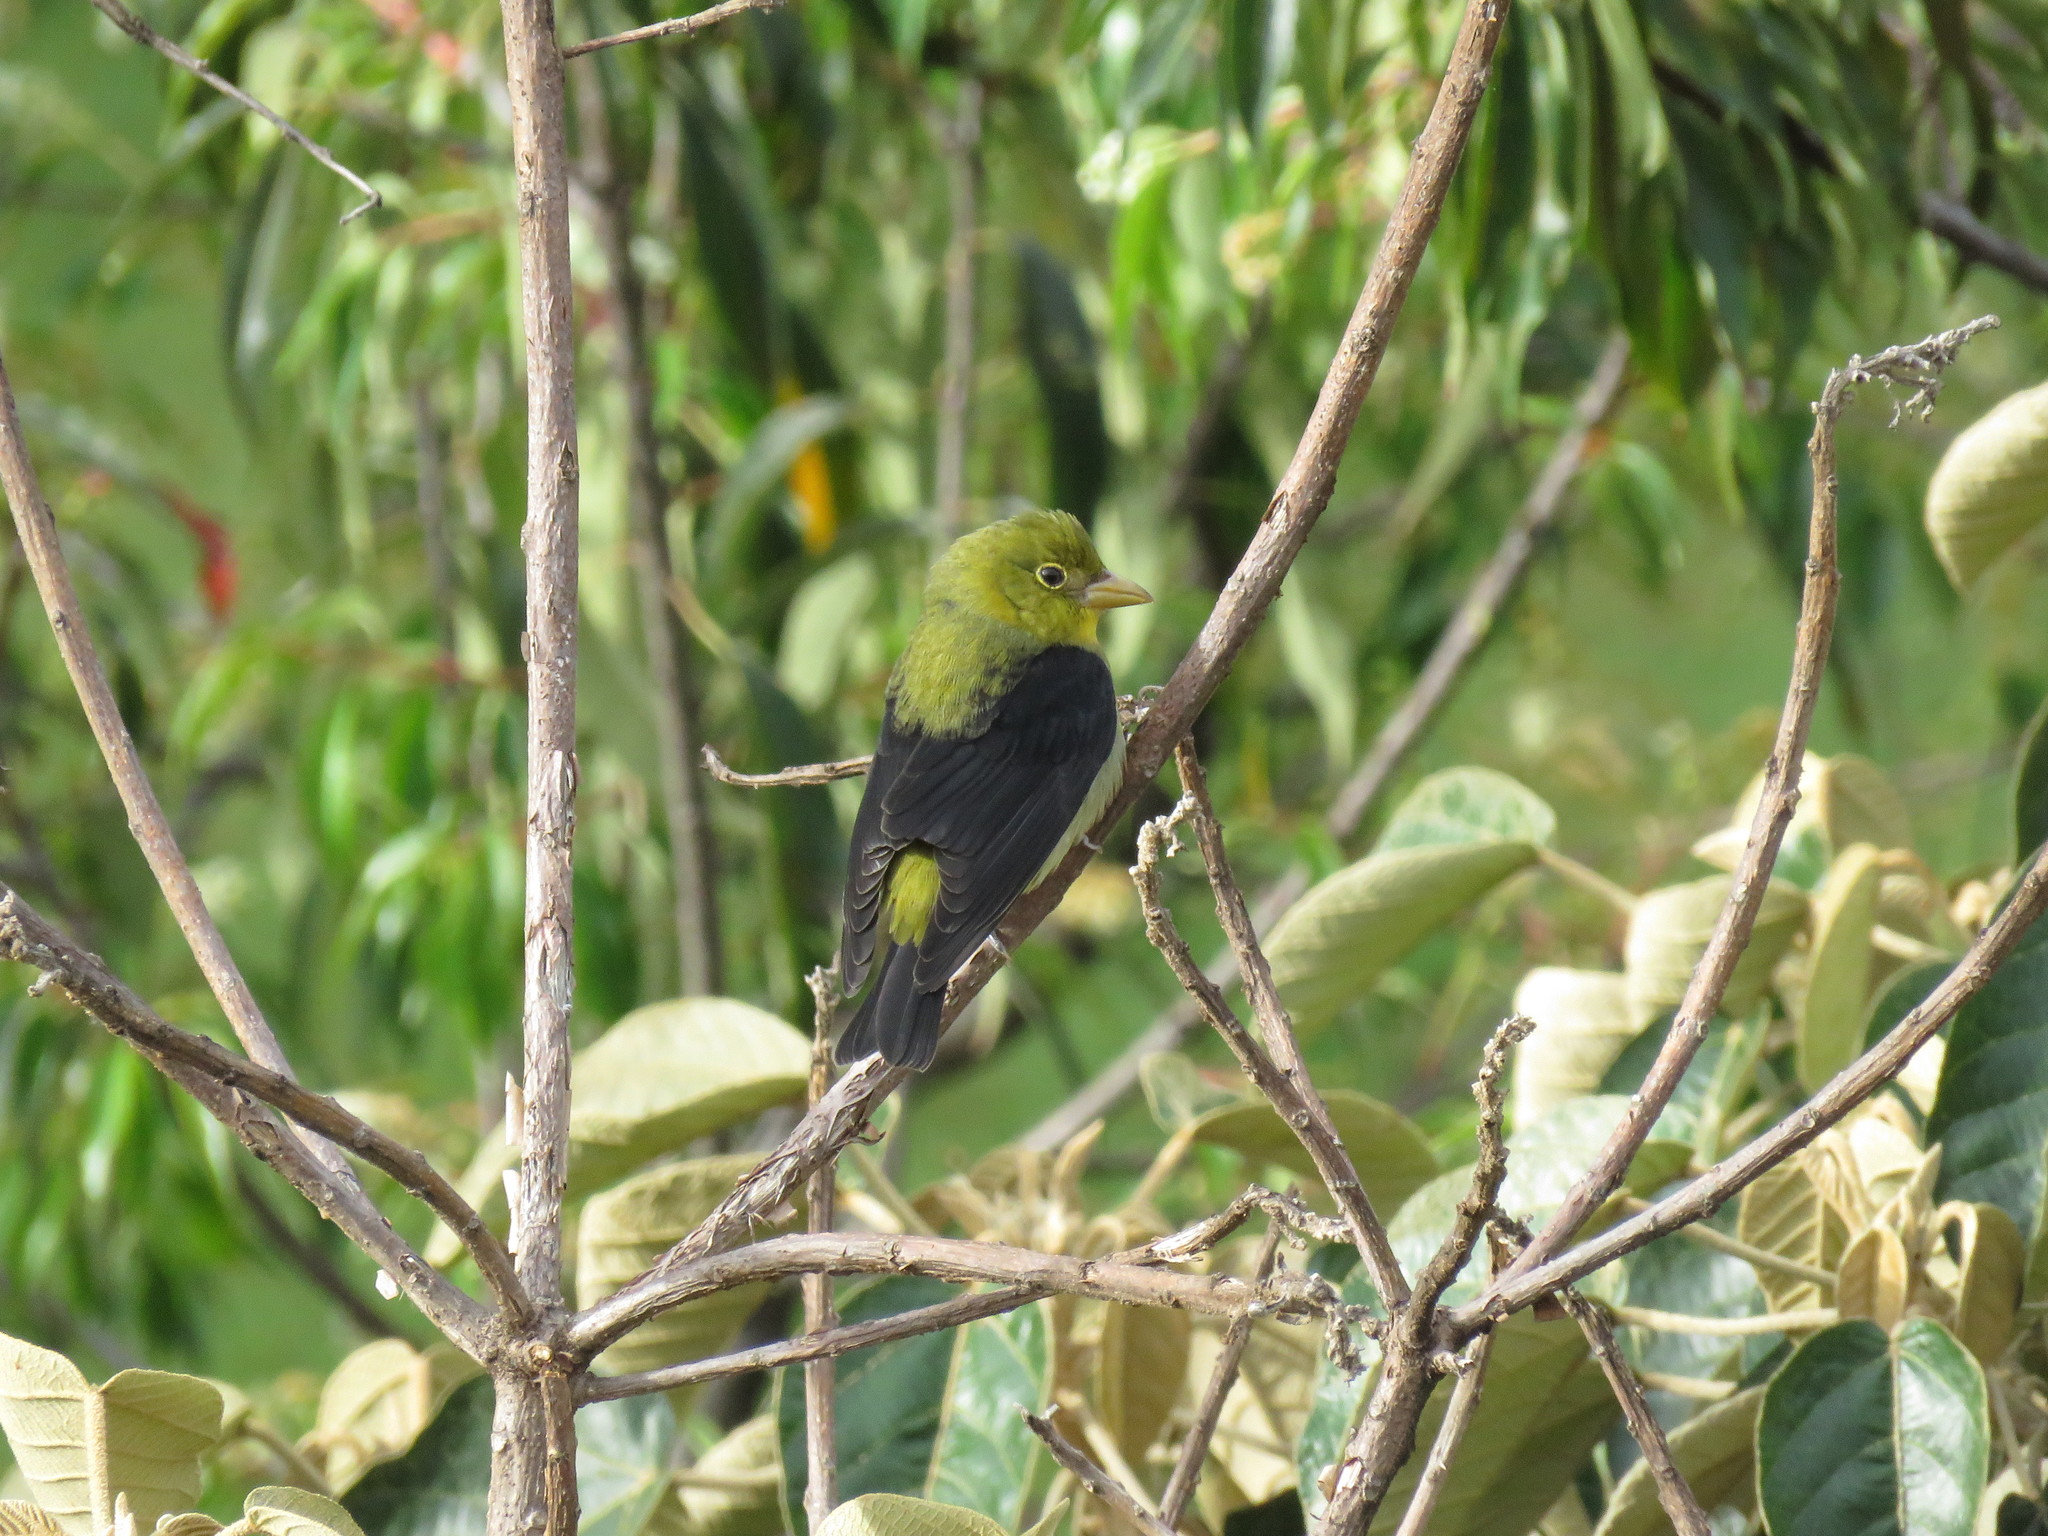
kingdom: Animalia
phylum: Chordata
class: Aves
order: Passeriformes
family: Cardinalidae
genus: Piranga
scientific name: Piranga olivacea
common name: Scarlet tanager
